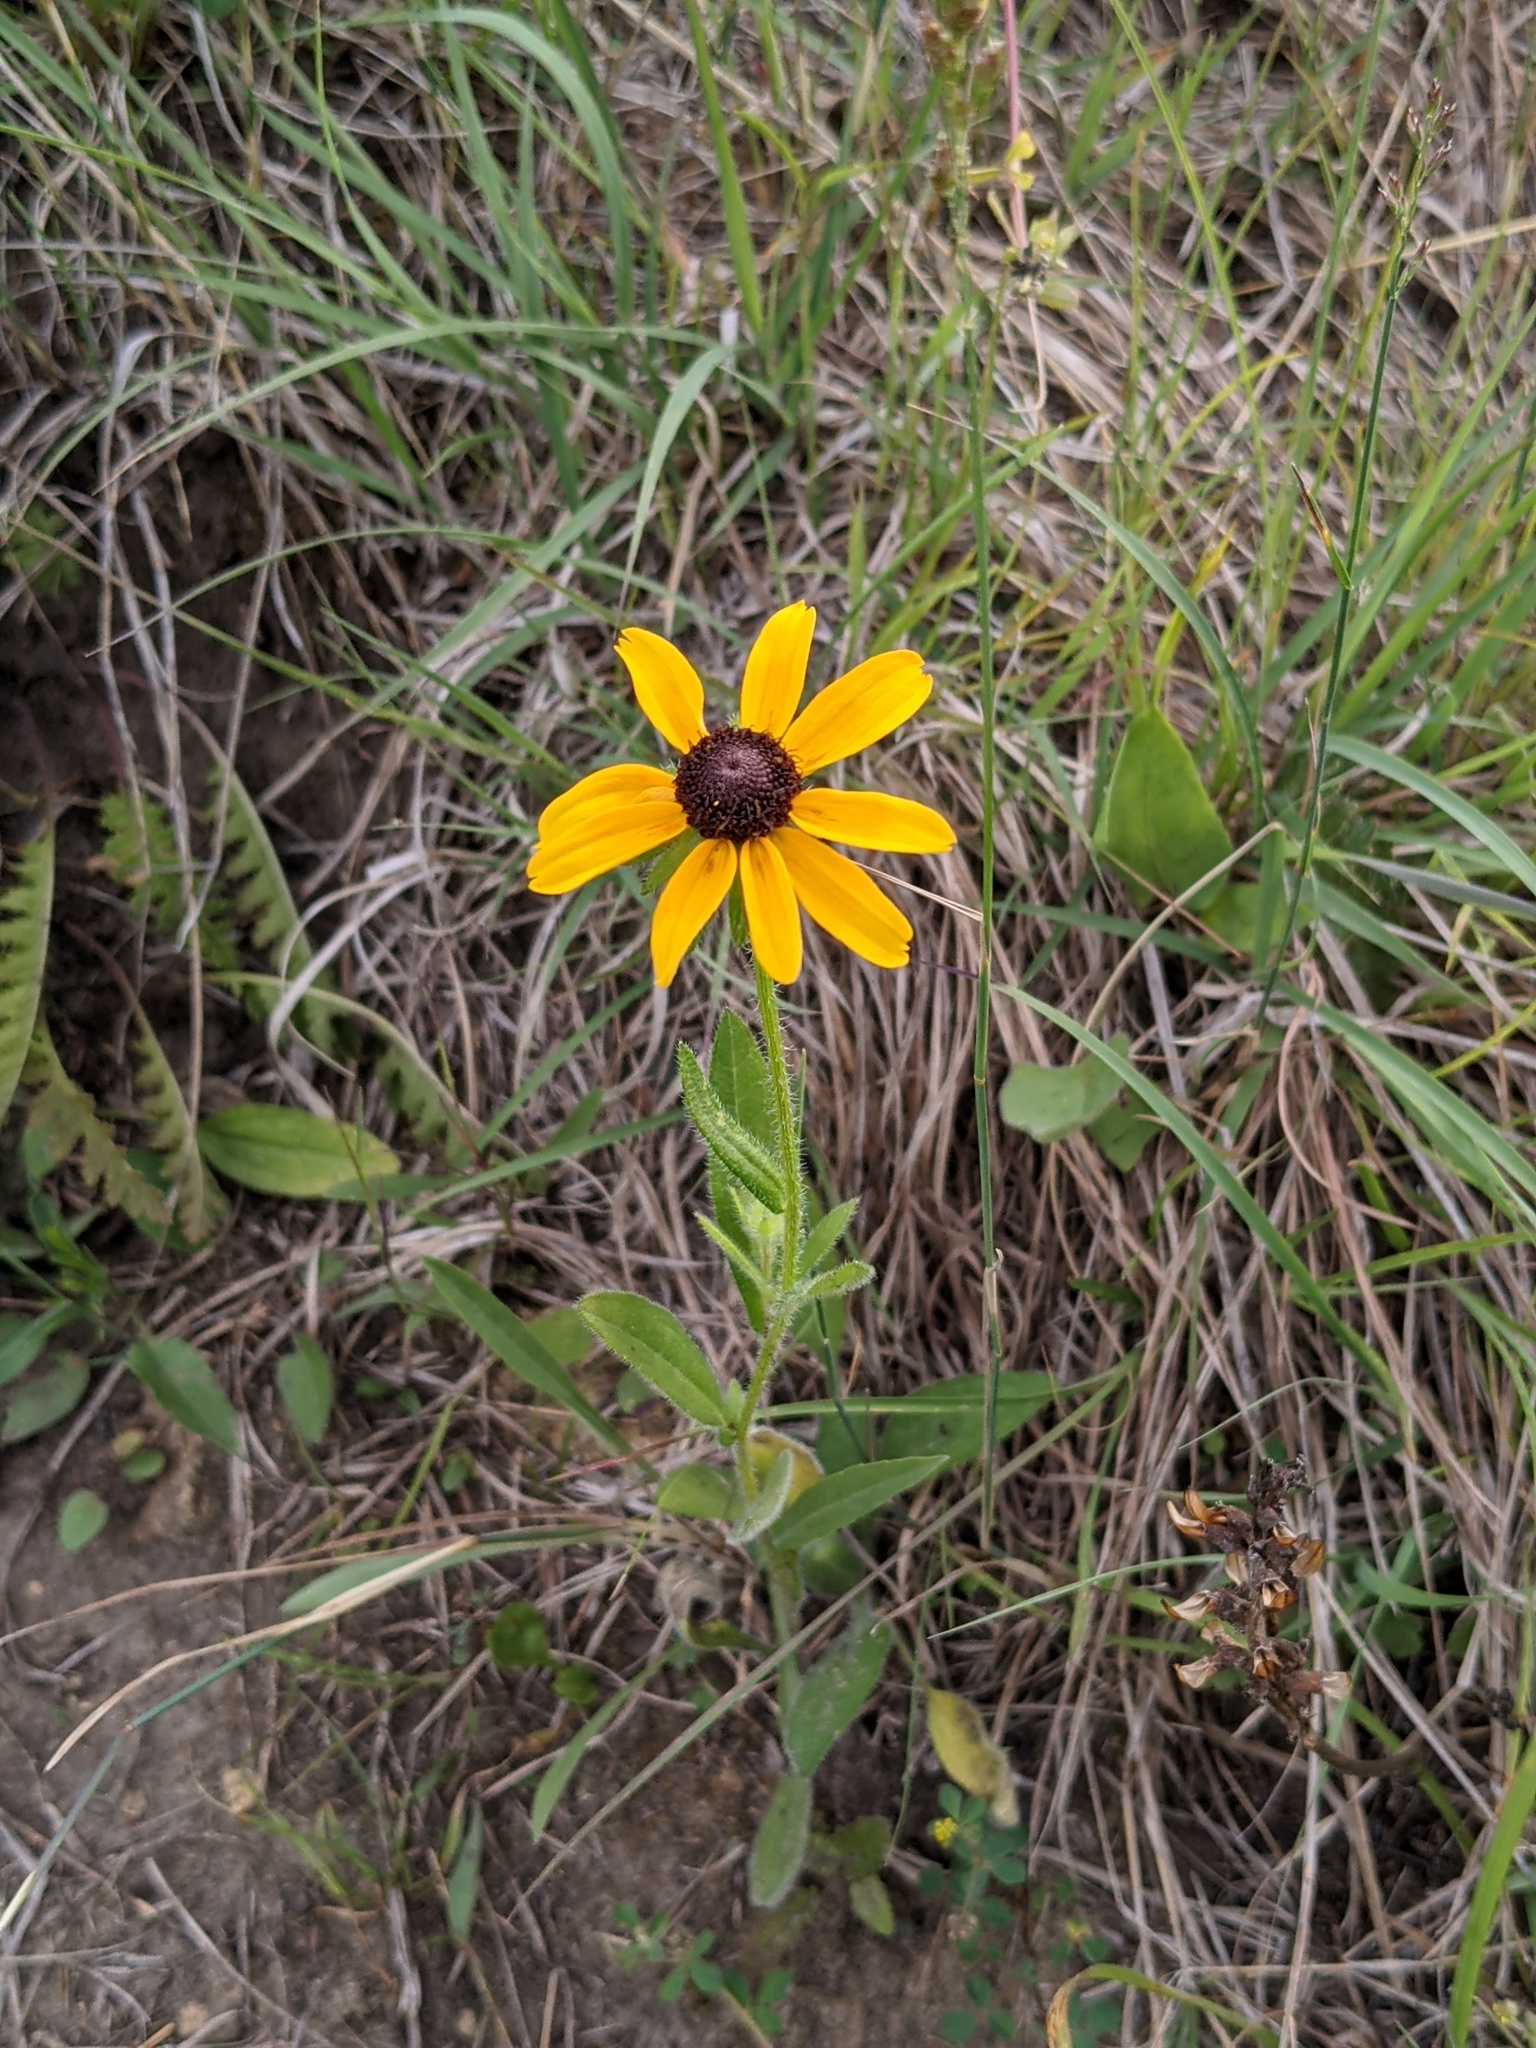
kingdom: Plantae
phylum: Tracheophyta
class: Magnoliopsida
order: Asterales
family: Asteraceae
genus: Rudbeckia
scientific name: Rudbeckia hirta
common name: Black-eyed-susan
